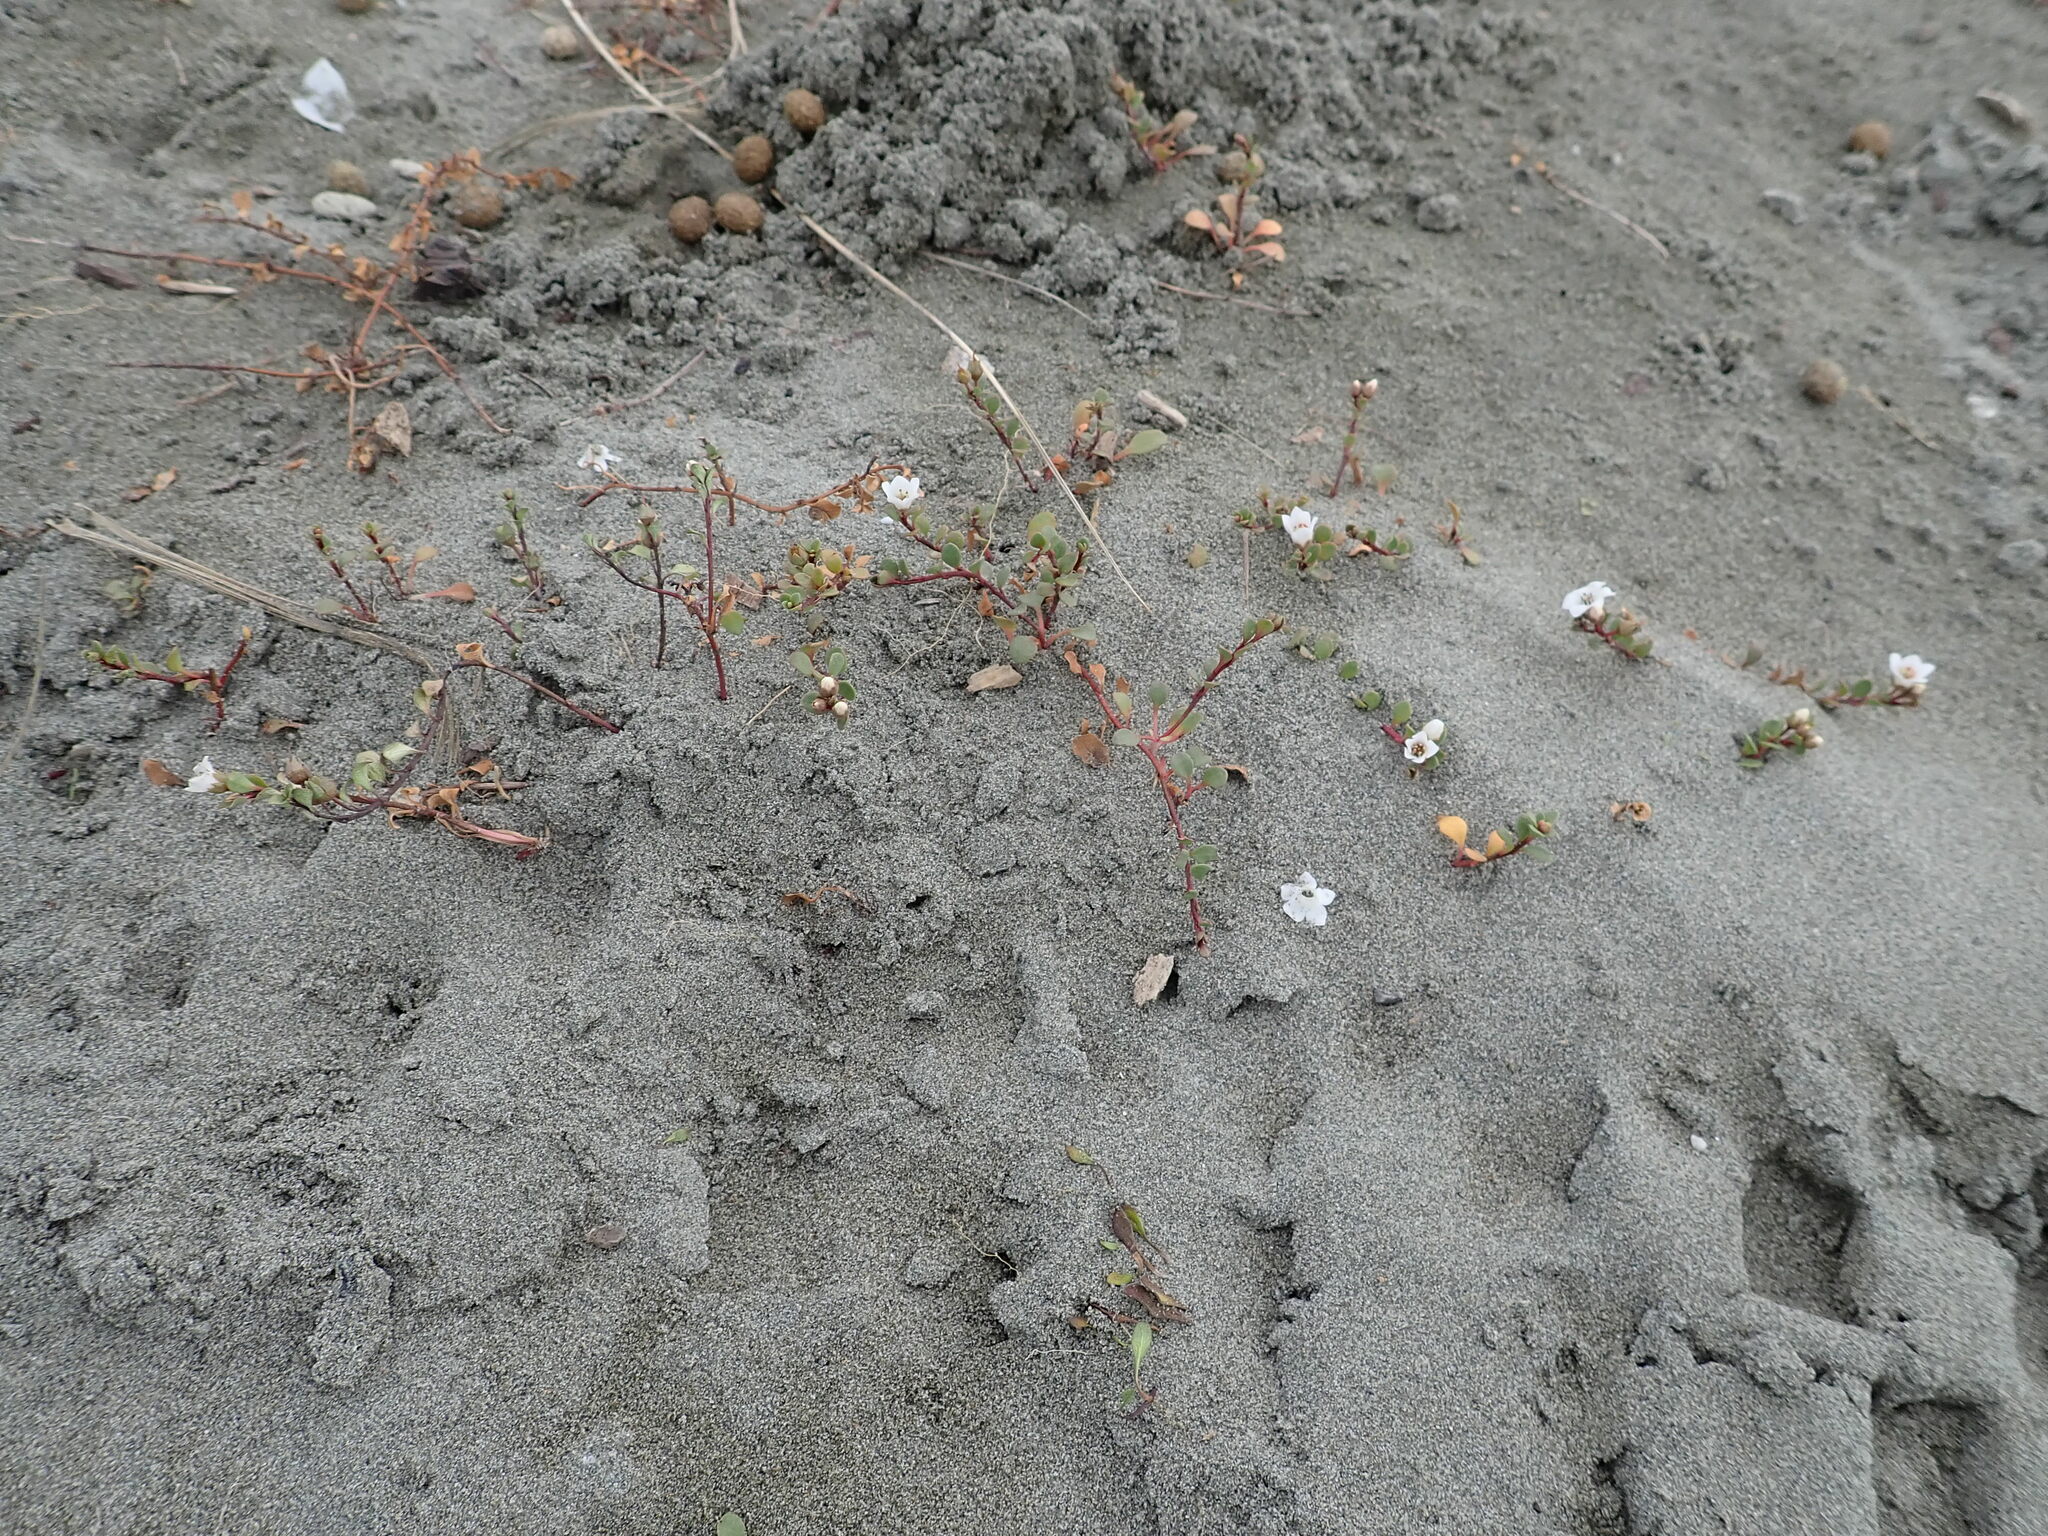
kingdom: Plantae
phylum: Tracheophyta
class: Magnoliopsida
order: Ericales
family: Primulaceae
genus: Samolus
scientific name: Samolus repens
